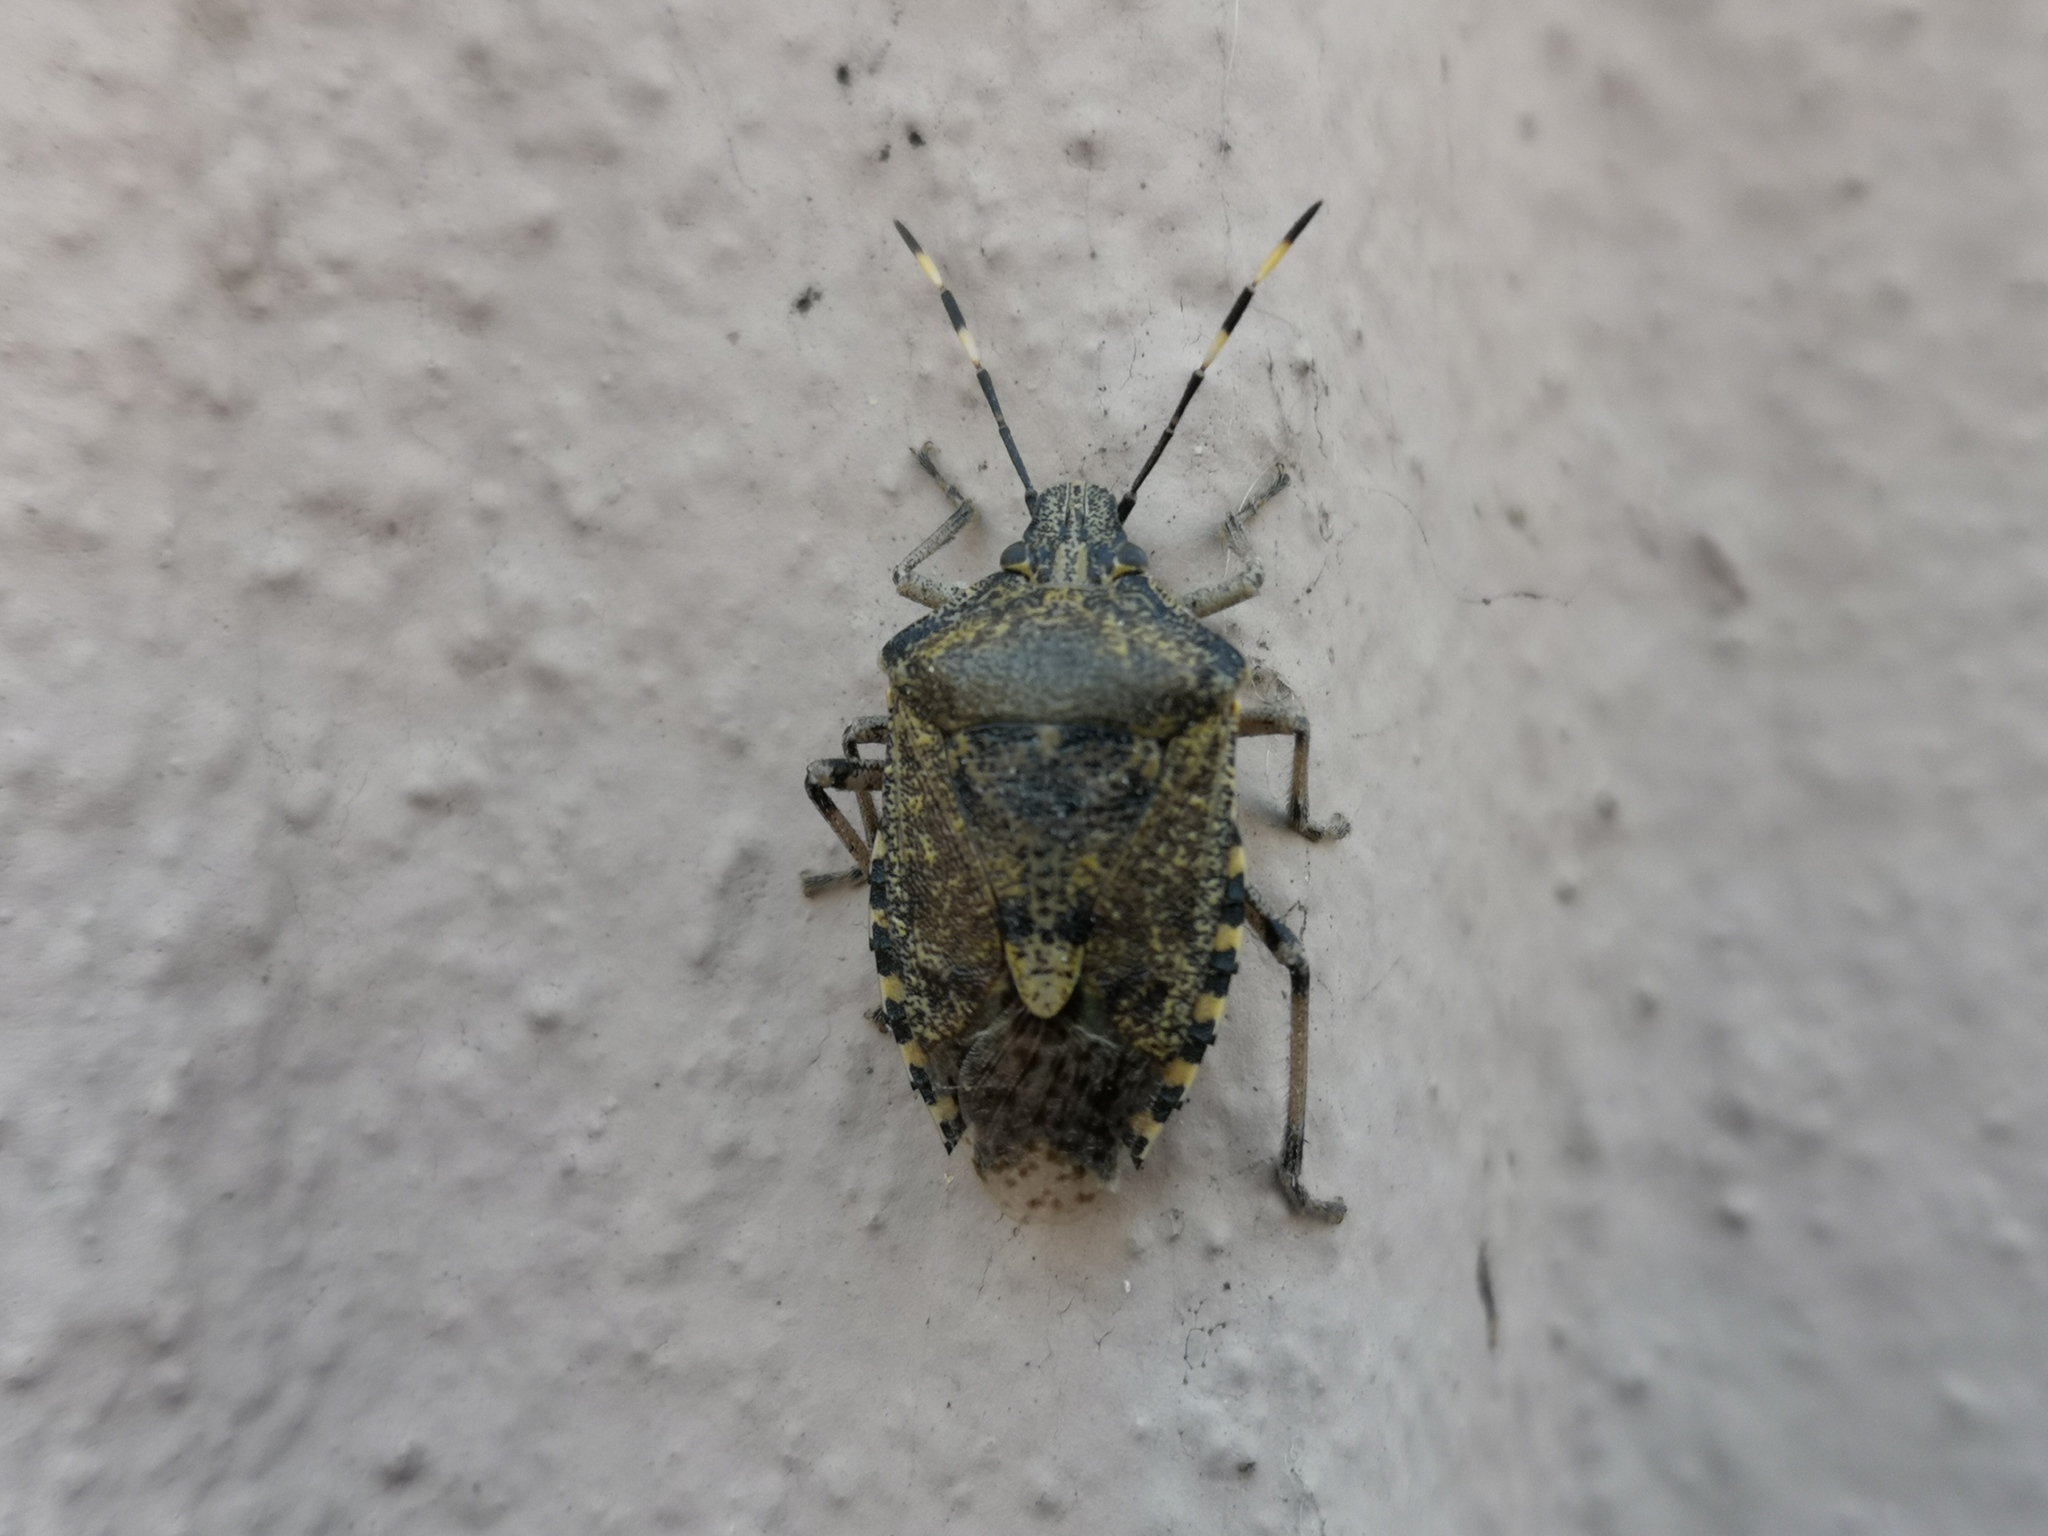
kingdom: Animalia
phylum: Arthropoda
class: Insecta
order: Hemiptera
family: Pentatomidae
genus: Rhaphigaster
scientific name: Rhaphigaster nebulosa
